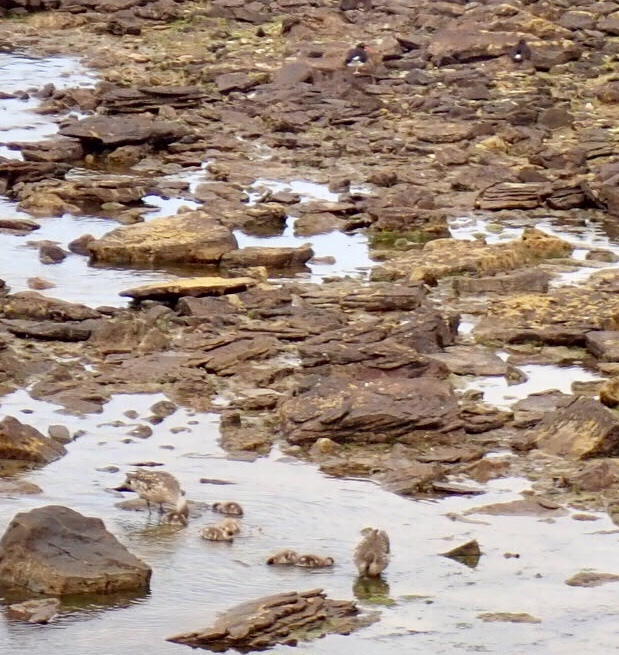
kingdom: Animalia
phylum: Chordata
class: Aves
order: Anseriformes
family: Anatidae
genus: Lophonetta
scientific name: Lophonetta specularioides
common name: Crested duck
